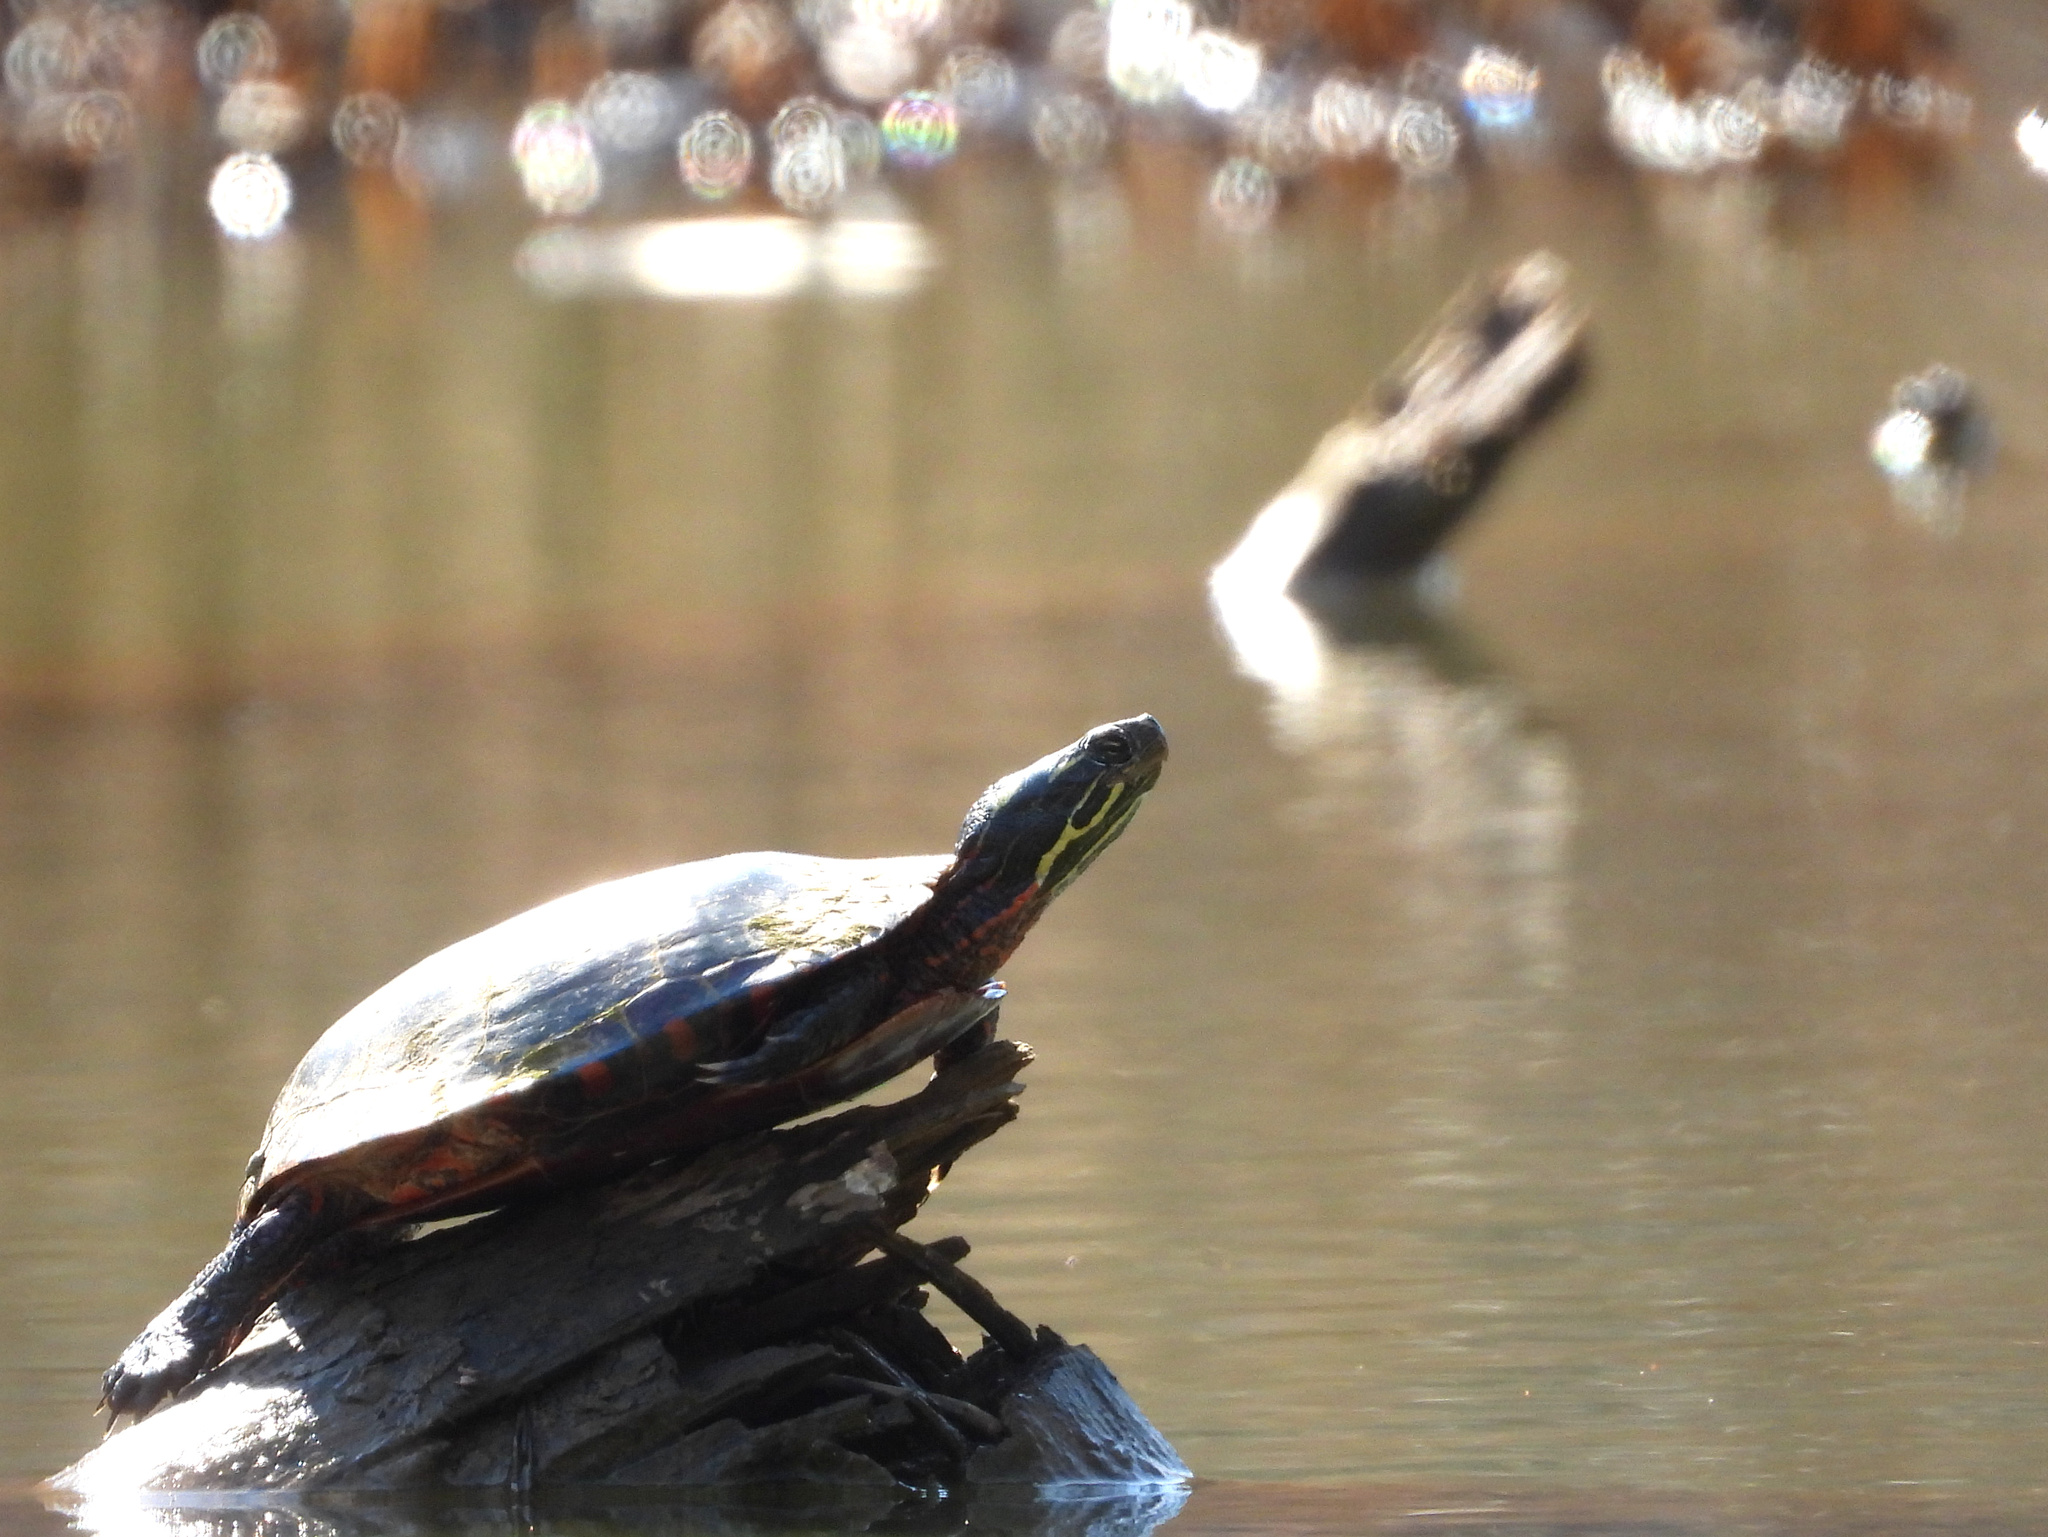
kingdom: Animalia
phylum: Chordata
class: Testudines
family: Emydidae
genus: Chrysemys
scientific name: Chrysemys picta
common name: Painted turtle
